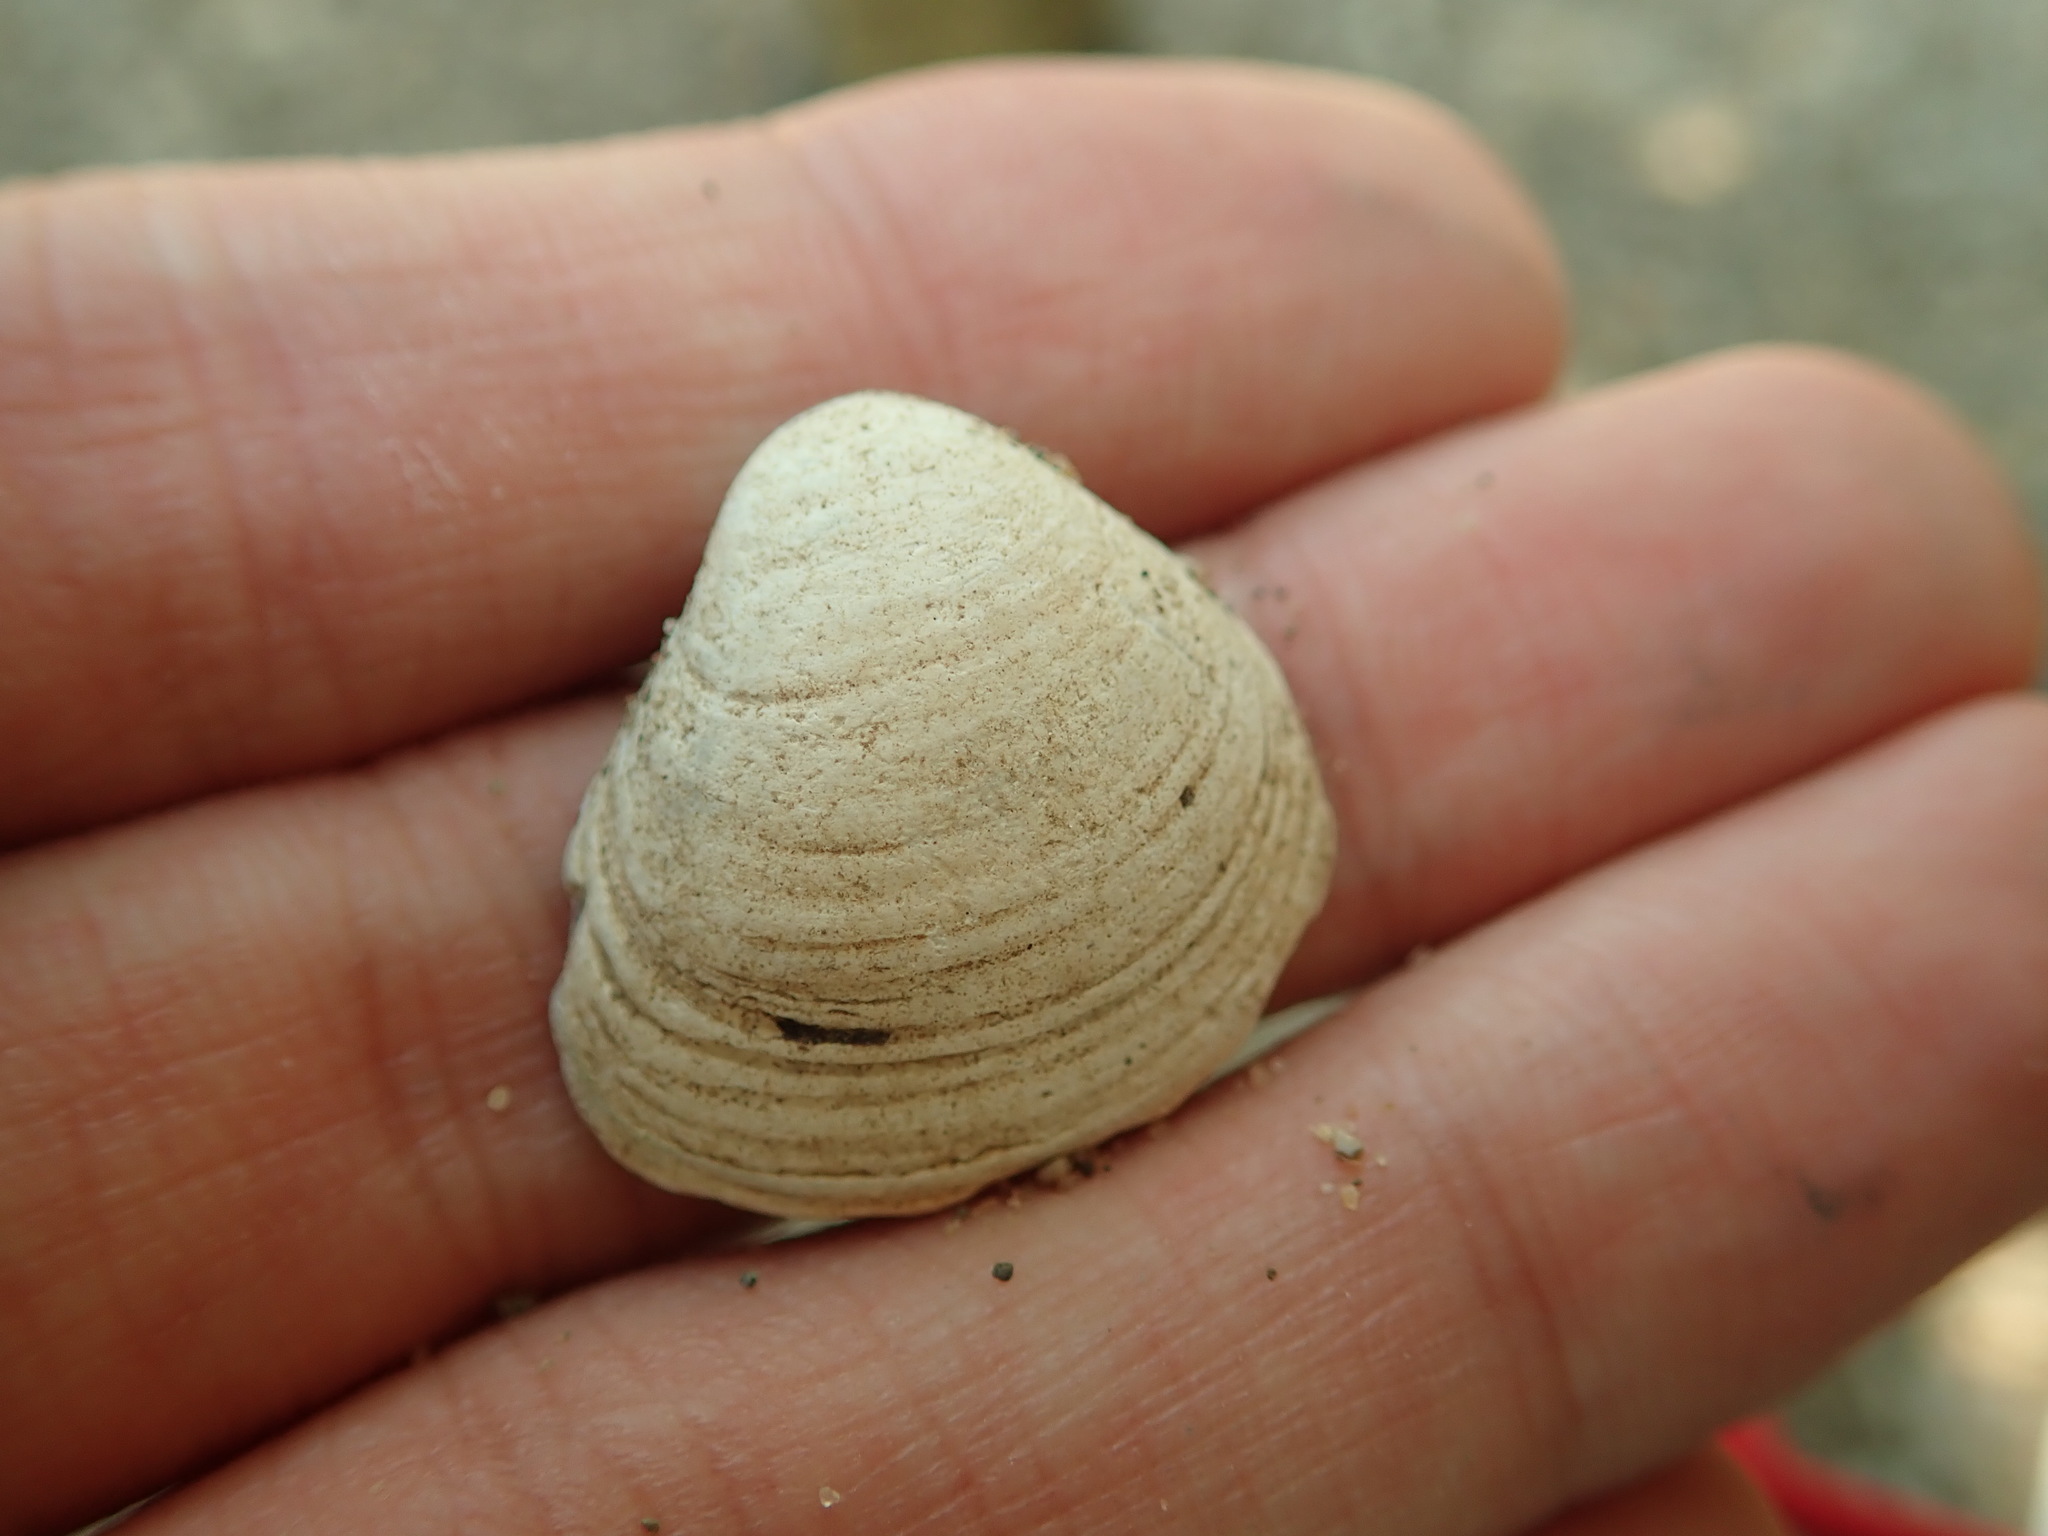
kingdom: Animalia
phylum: Mollusca
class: Bivalvia
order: Venerida
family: Cyrenidae
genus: Corbicula
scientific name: Corbicula fluminea
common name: Asian clam
